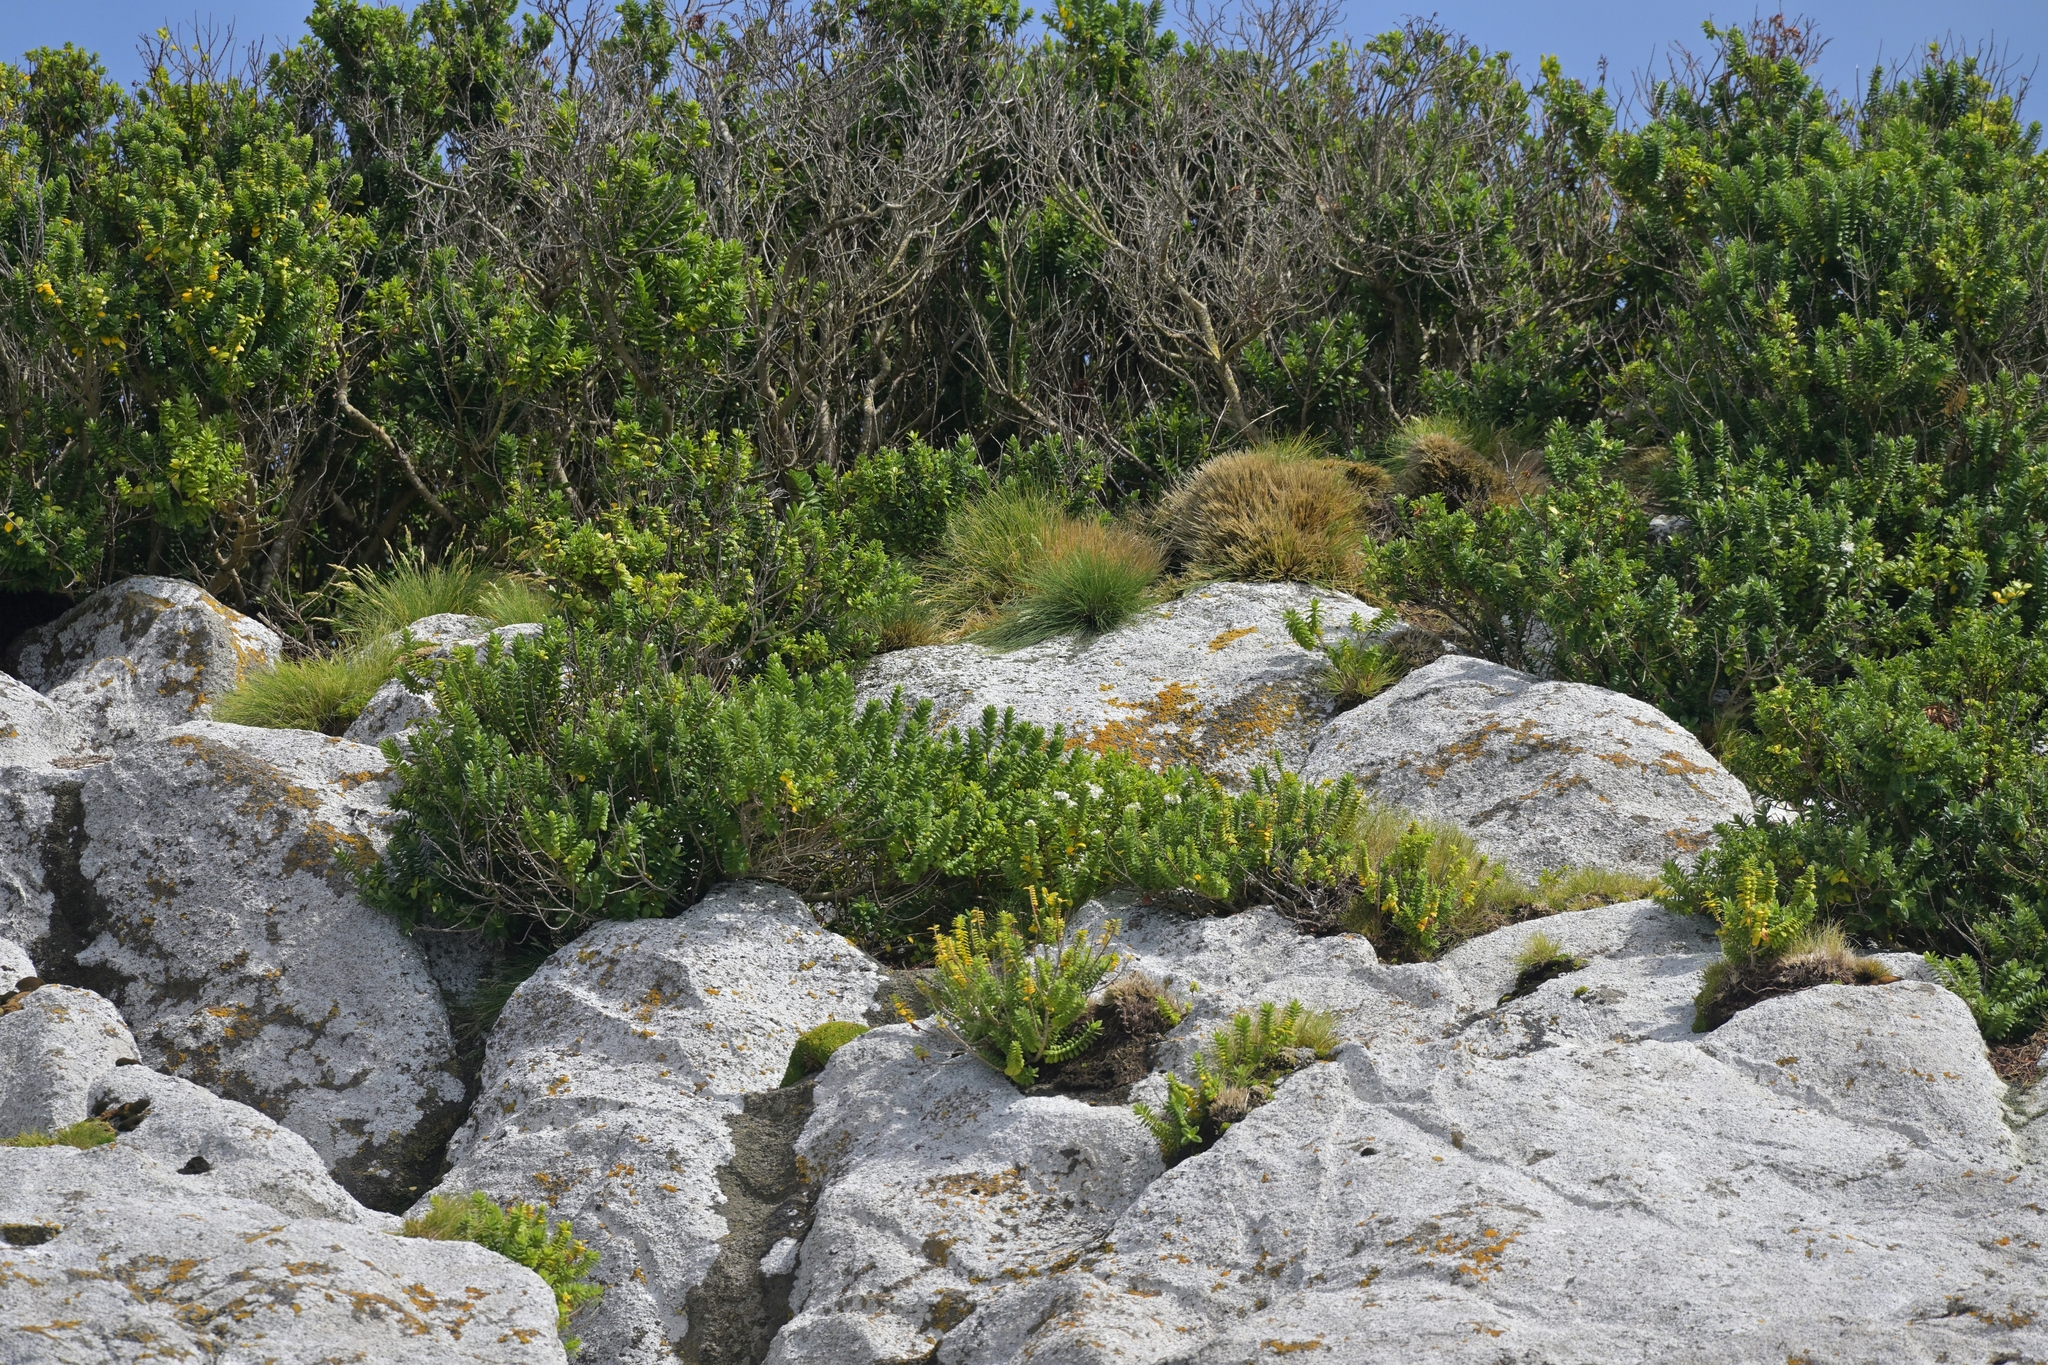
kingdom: Plantae
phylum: Tracheophyta
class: Magnoliopsida
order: Lamiales
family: Plantaginaceae
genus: Veronica
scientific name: Veronica elliptica
